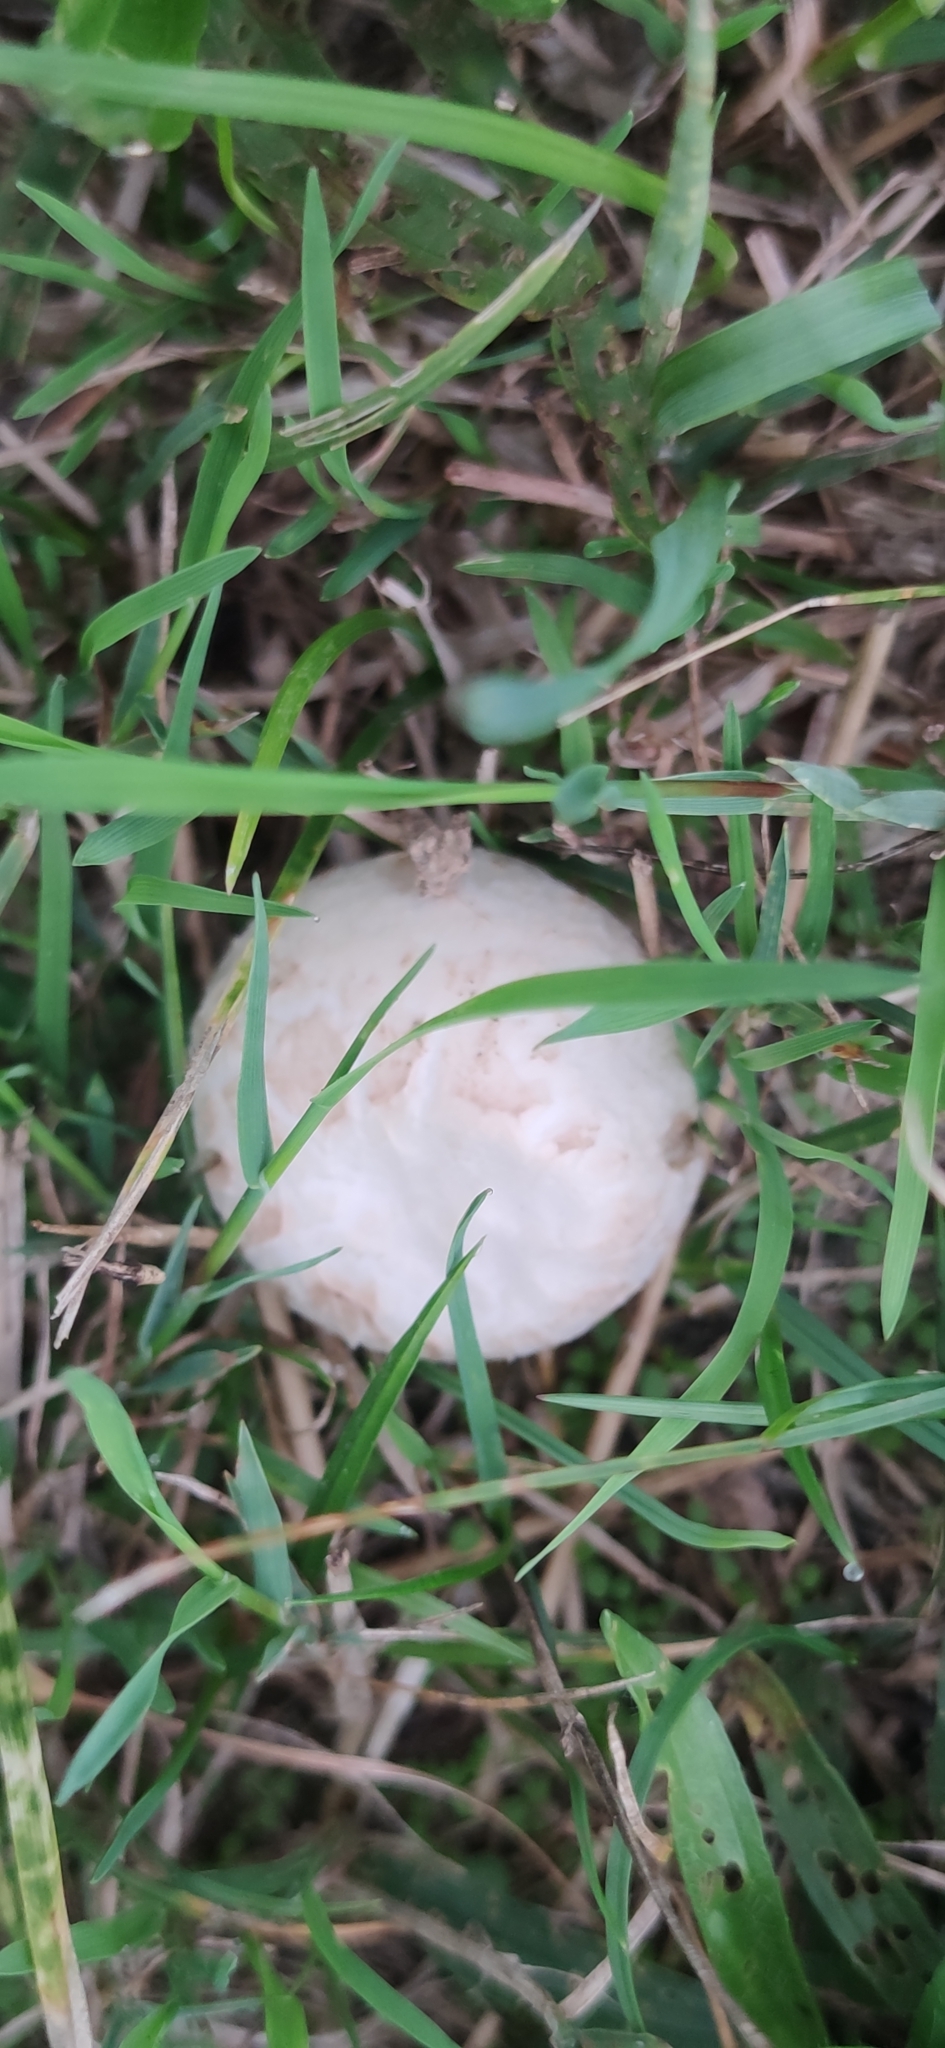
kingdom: Fungi
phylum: Basidiomycota
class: Agaricomycetes
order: Agaricales
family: Agaricaceae
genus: Agaricus
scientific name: Agaricus abruptibulbus
